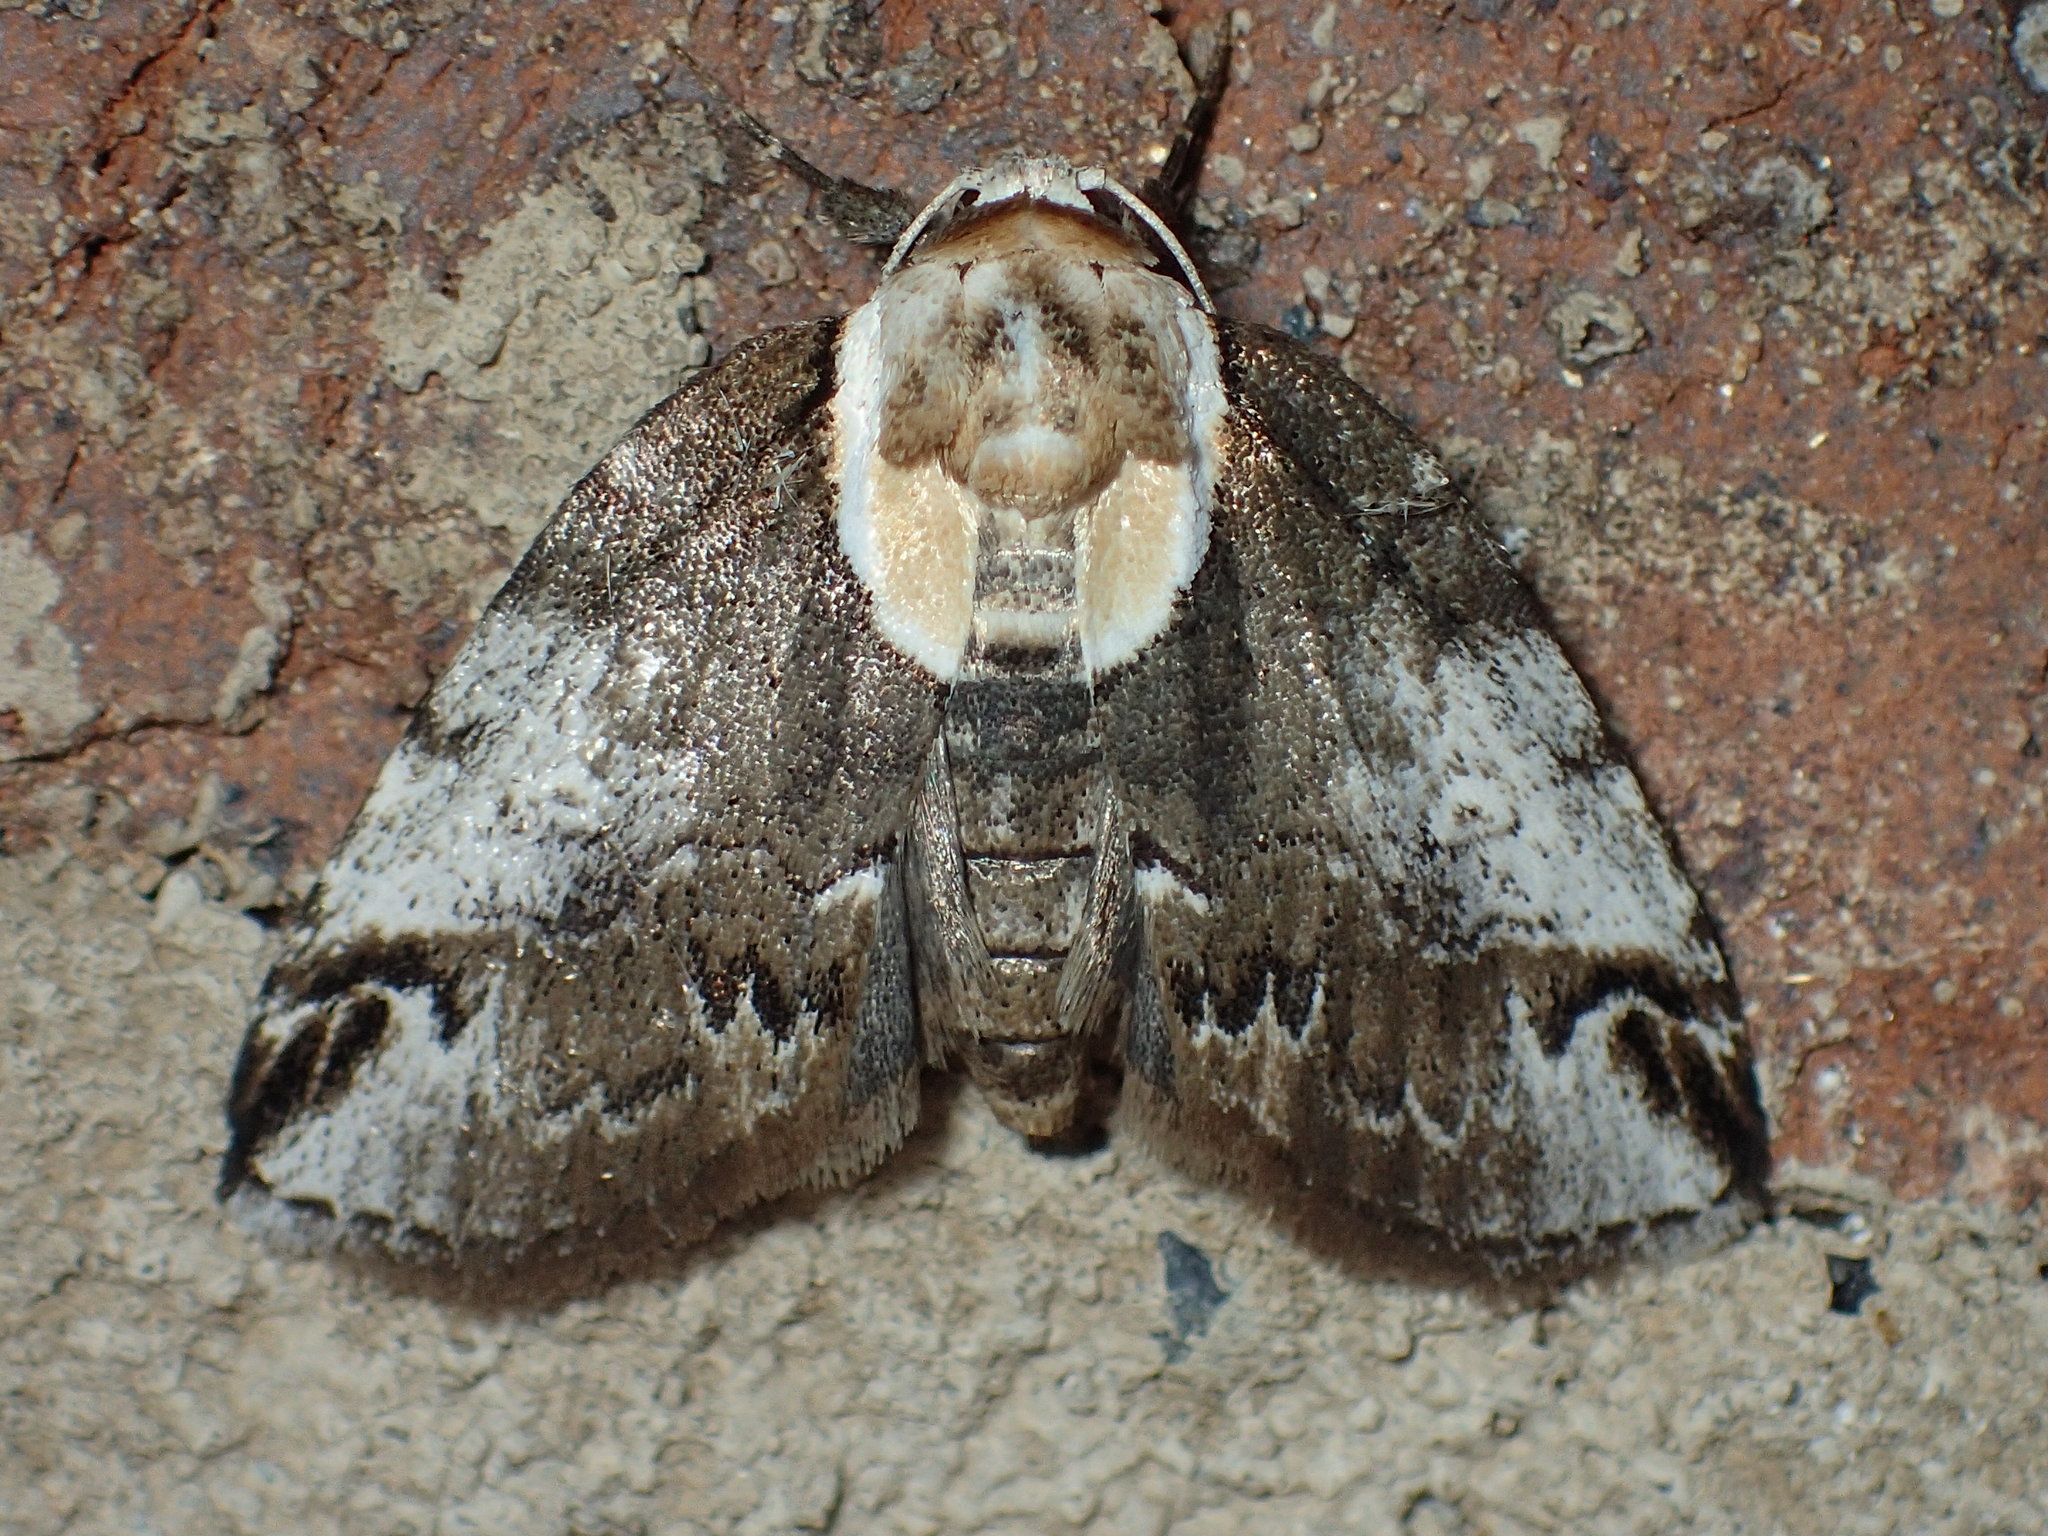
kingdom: Animalia
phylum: Arthropoda
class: Insecta
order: Lepidoptera
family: Nolidae
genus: Baileya
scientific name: Baileya ophthalmica
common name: Eyed baileya moth
